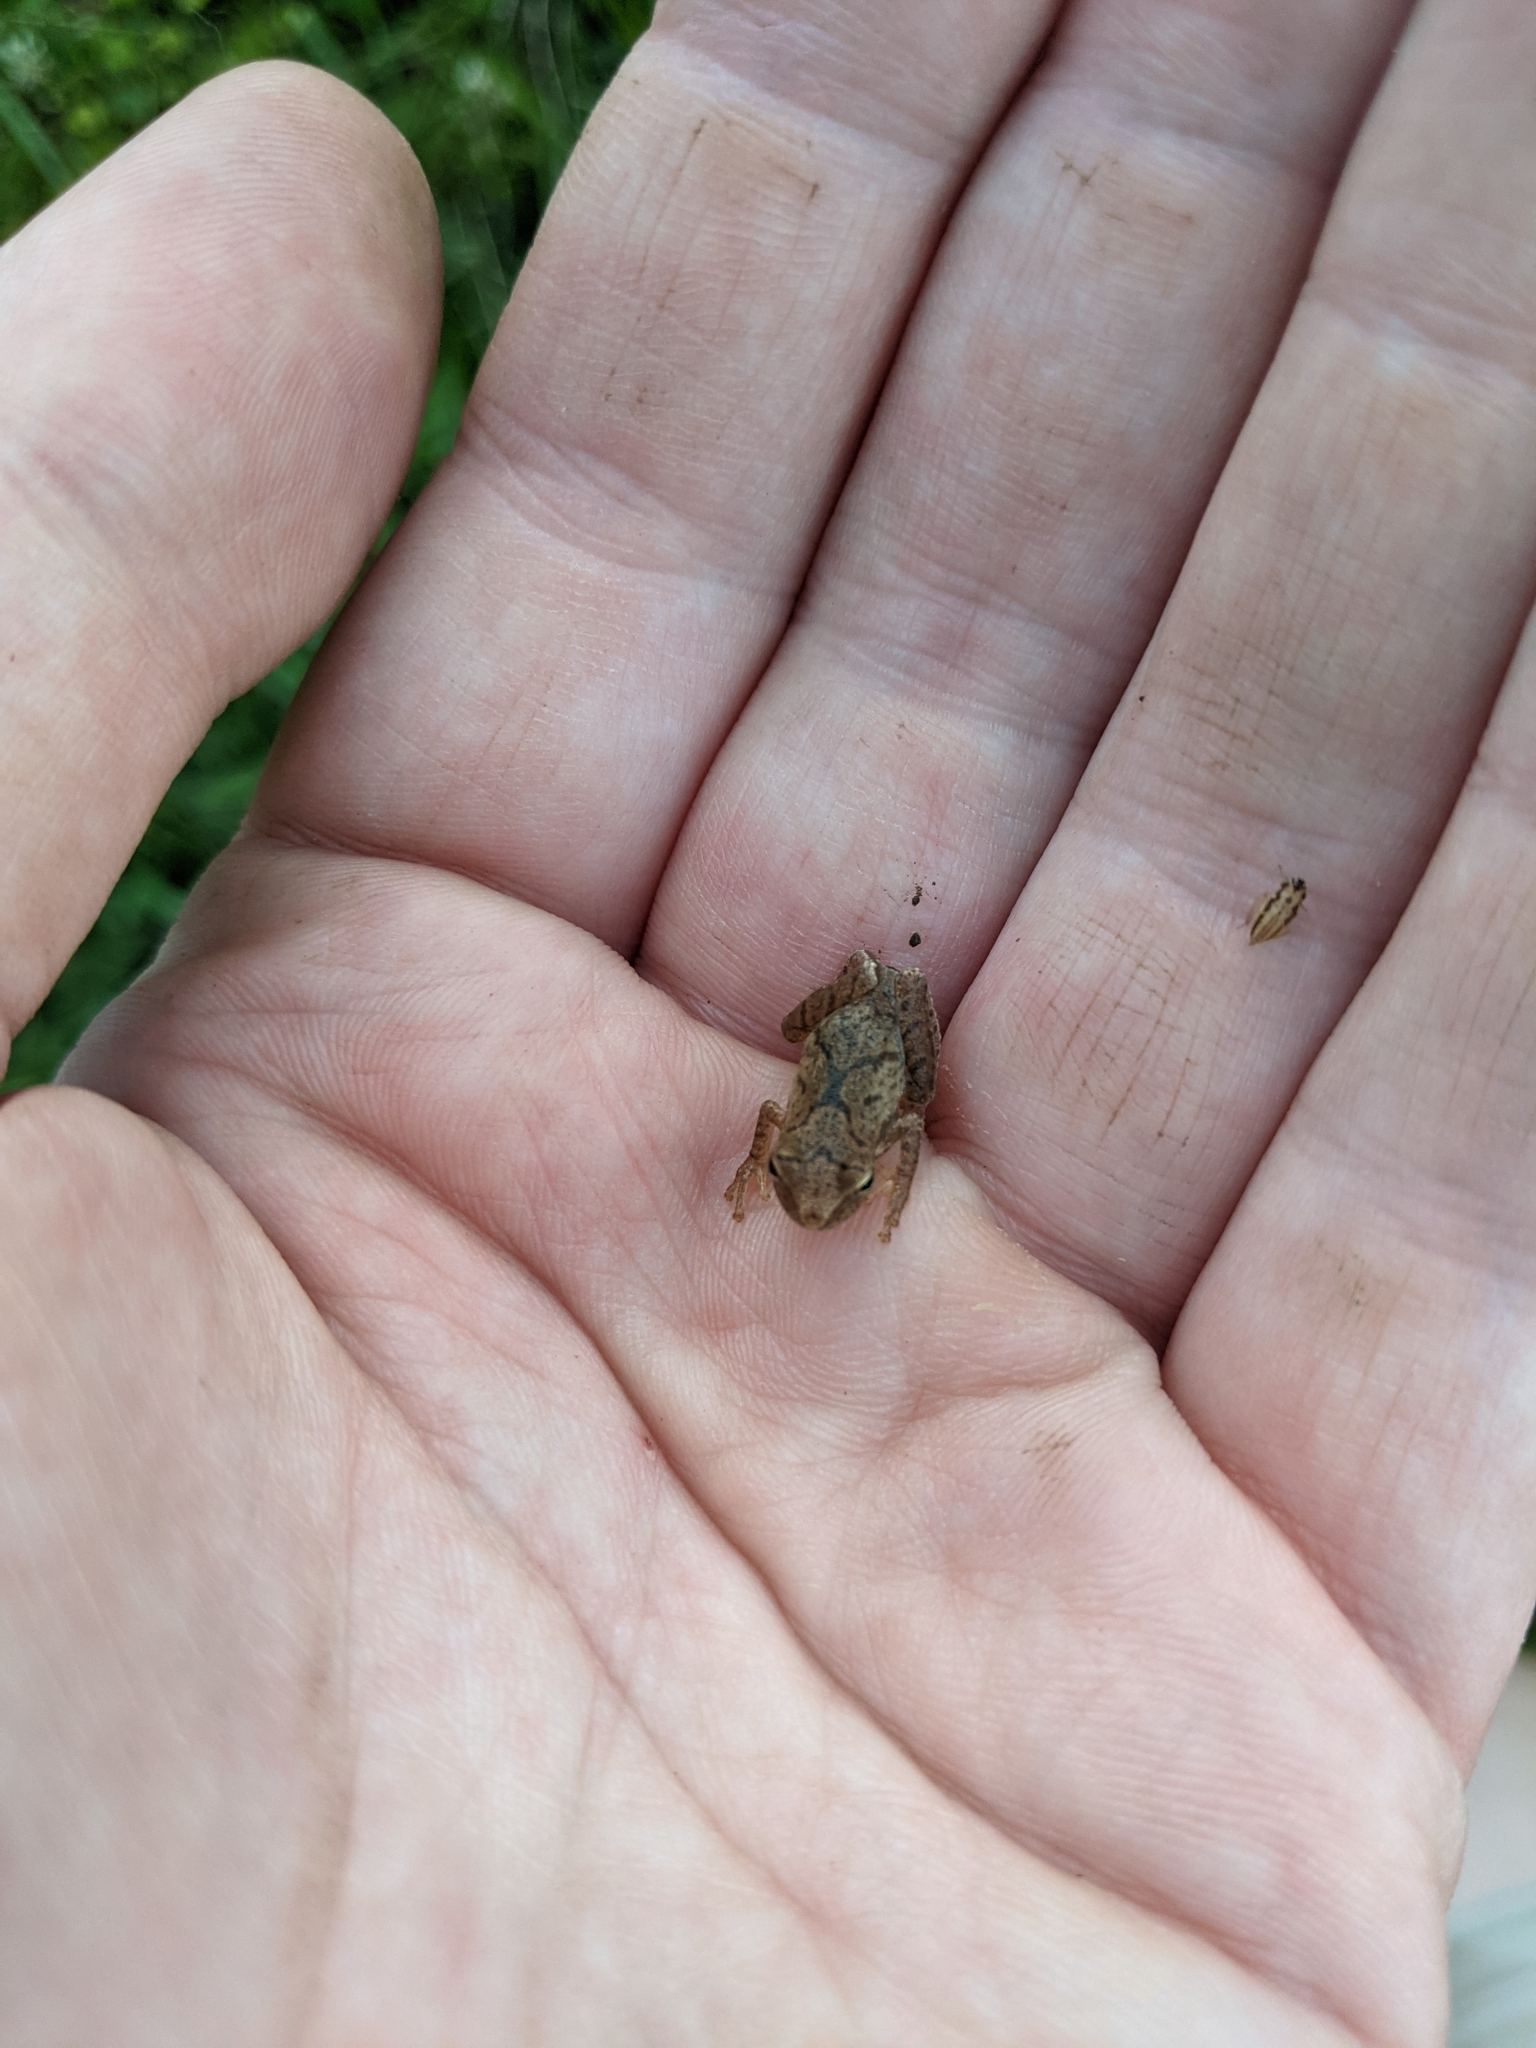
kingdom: Animalia
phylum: Chordata
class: Amphibia
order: Anura
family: Hylidae
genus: Pseudacris
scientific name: Pseudacris crucifer
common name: Spring peeper
